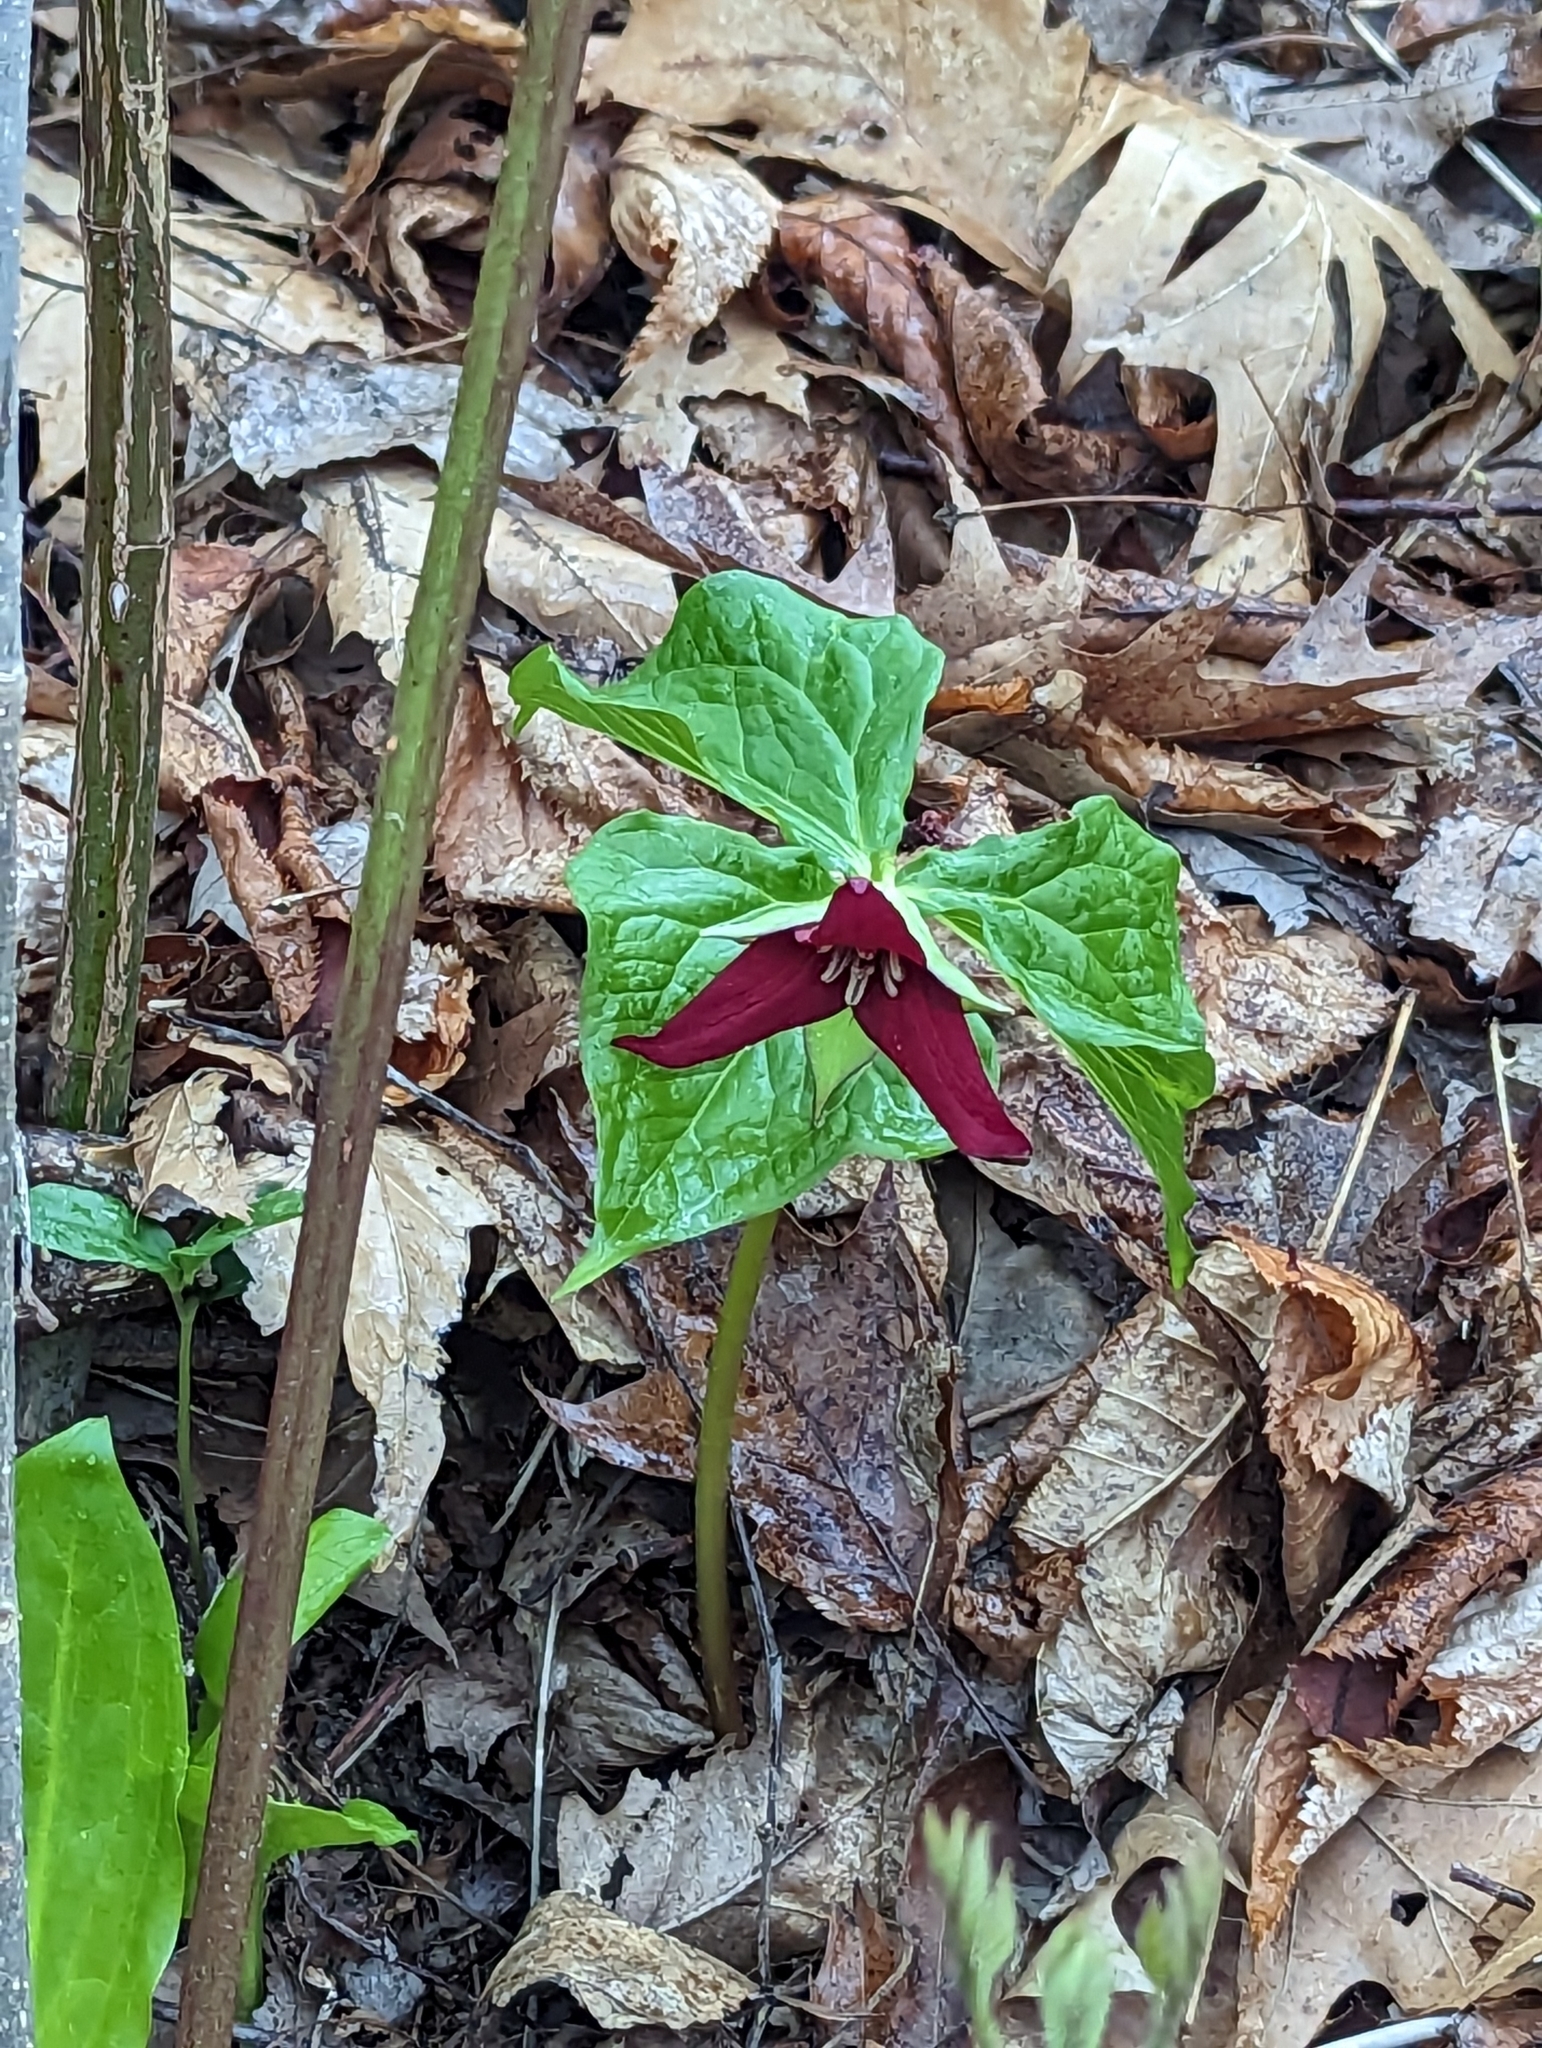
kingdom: Plantae
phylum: Tracheophyta
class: Liliopsida
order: Liliales
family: Melanthiaceae
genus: Trillium
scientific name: Trillium erectum
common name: Purple trillium
